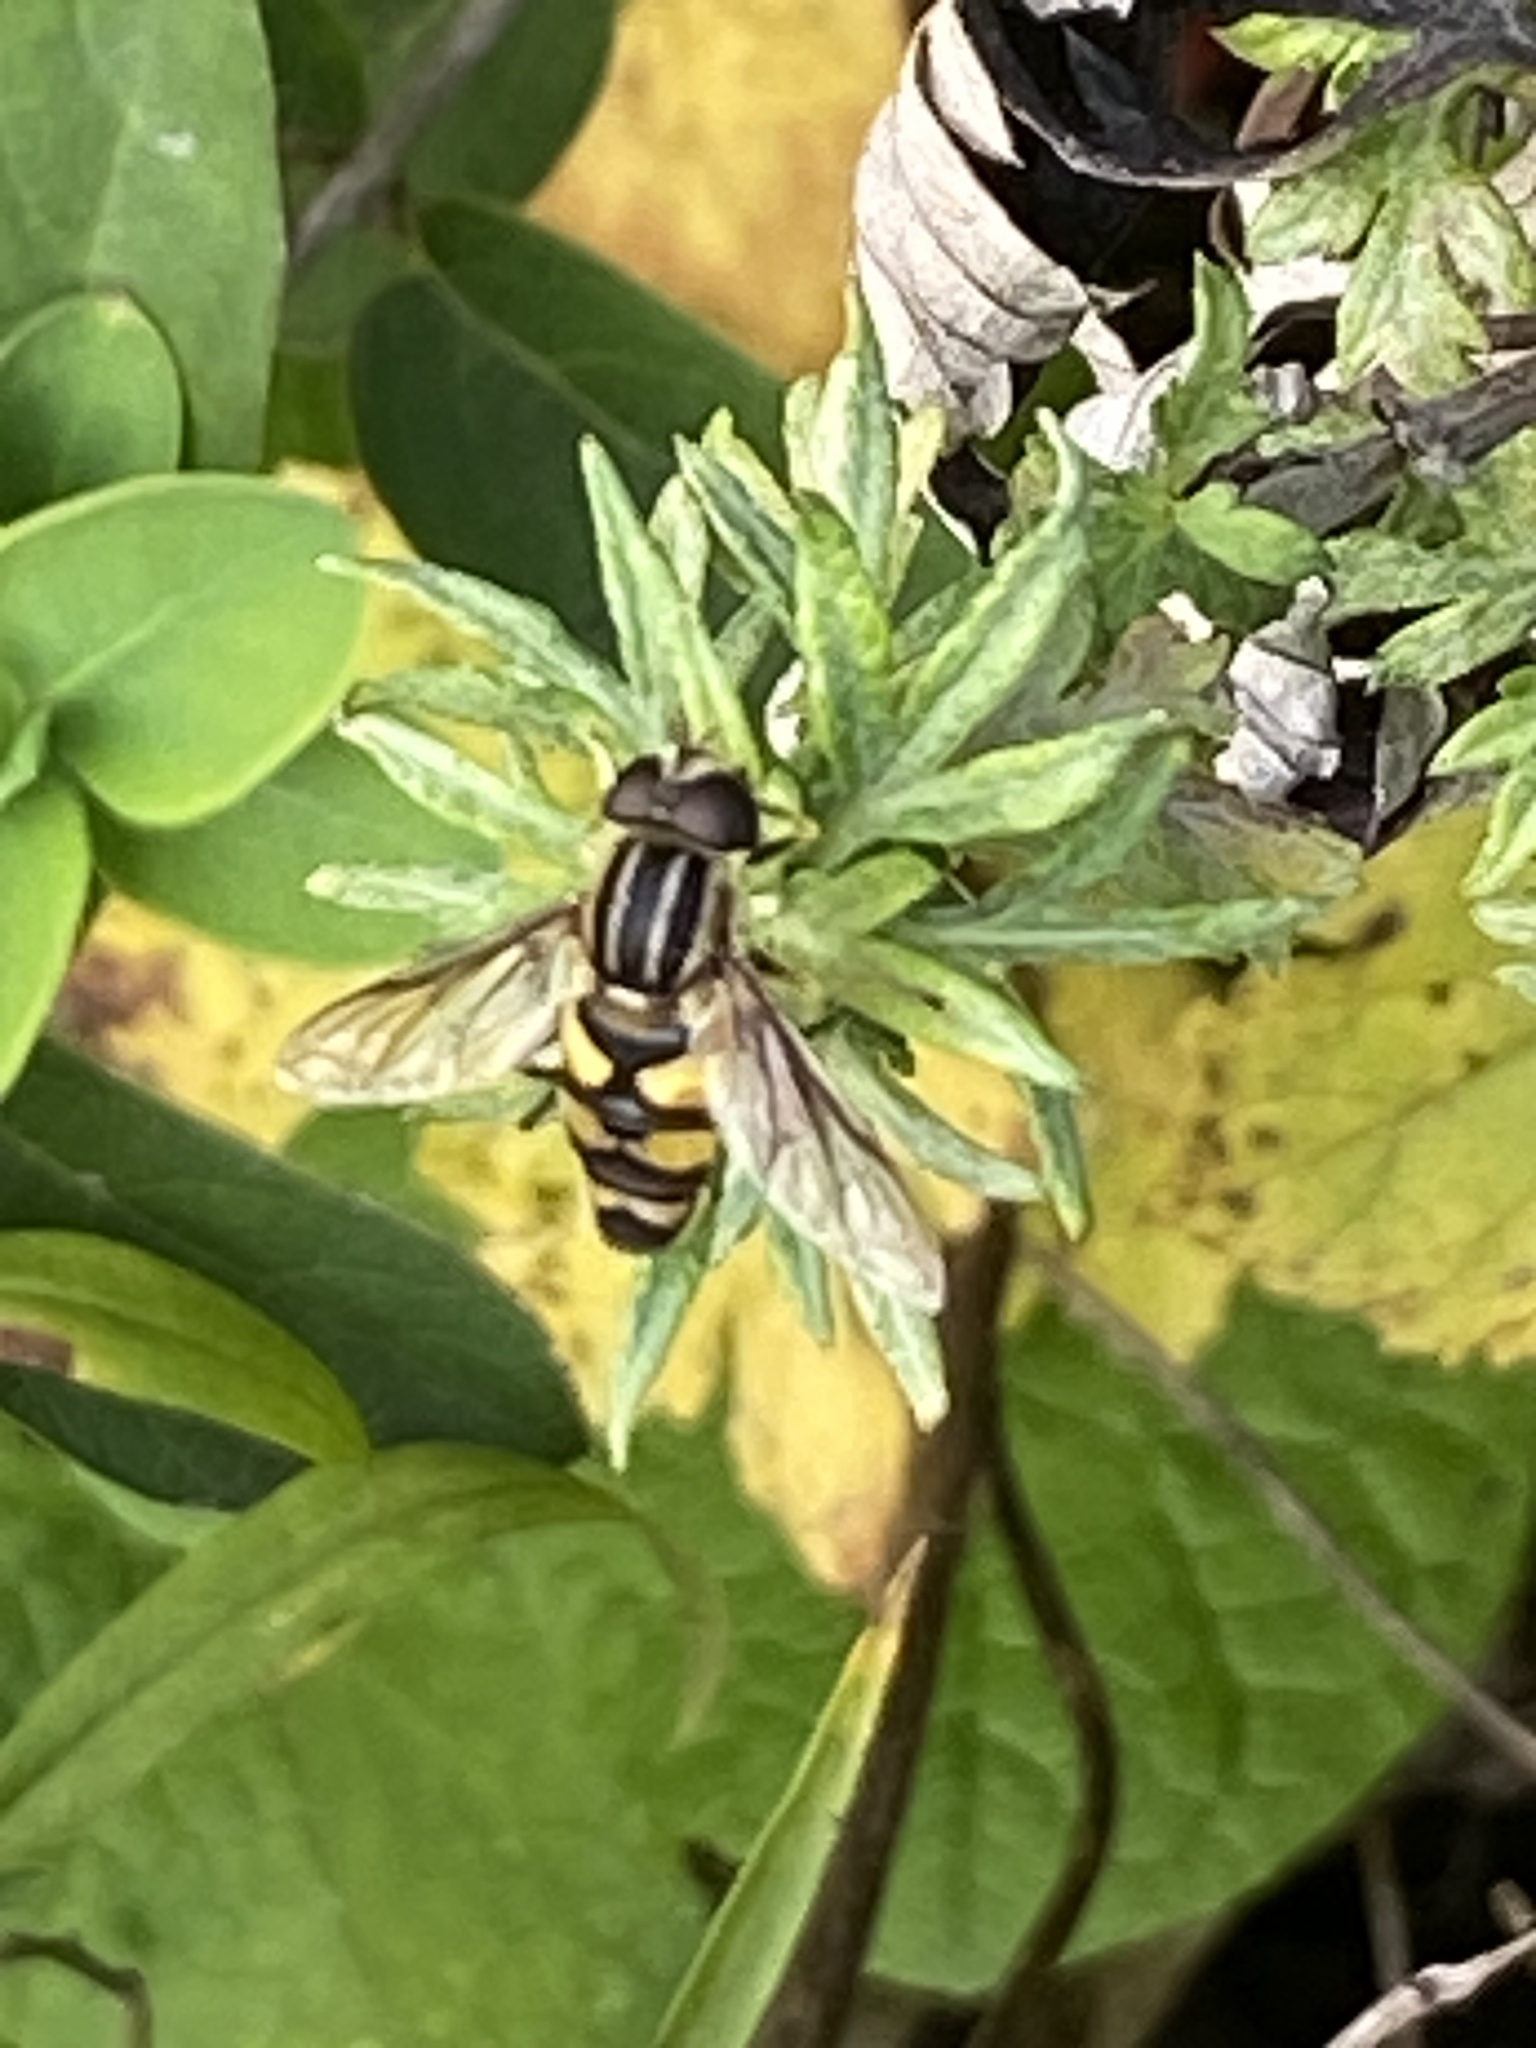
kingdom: Animalia
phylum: Arthropoda
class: Insecta
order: Diptera
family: Syrphidae
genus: Helophilus
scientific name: Helophilus fasciatus
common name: Narrow-headed marsh fly
